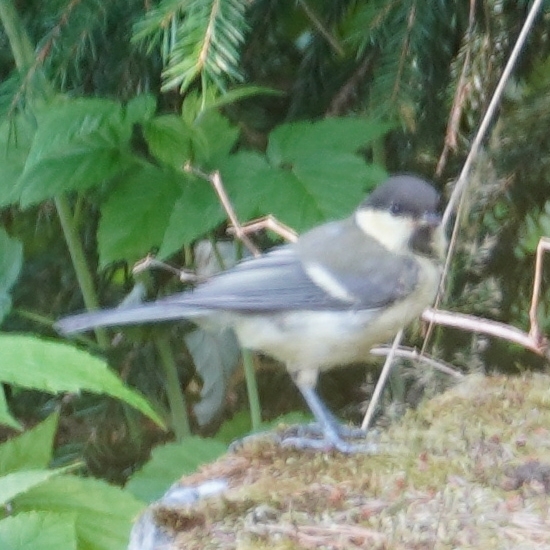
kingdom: Animalia
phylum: Chordata
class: Aves
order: Passeriformes
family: Paridae
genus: Parus
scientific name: Parus major
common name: Great tit
